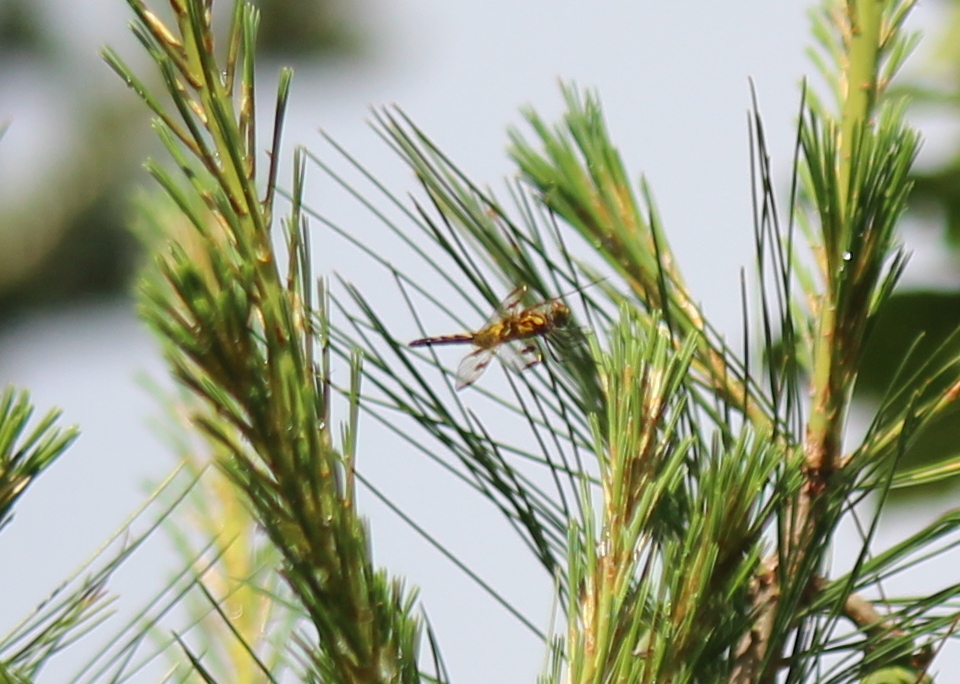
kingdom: Animalia
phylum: Arthropoda
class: Insecta
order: Odonata
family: Libellulidae
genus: Celithemis
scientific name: Celithemis elisa
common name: Calico pennant
